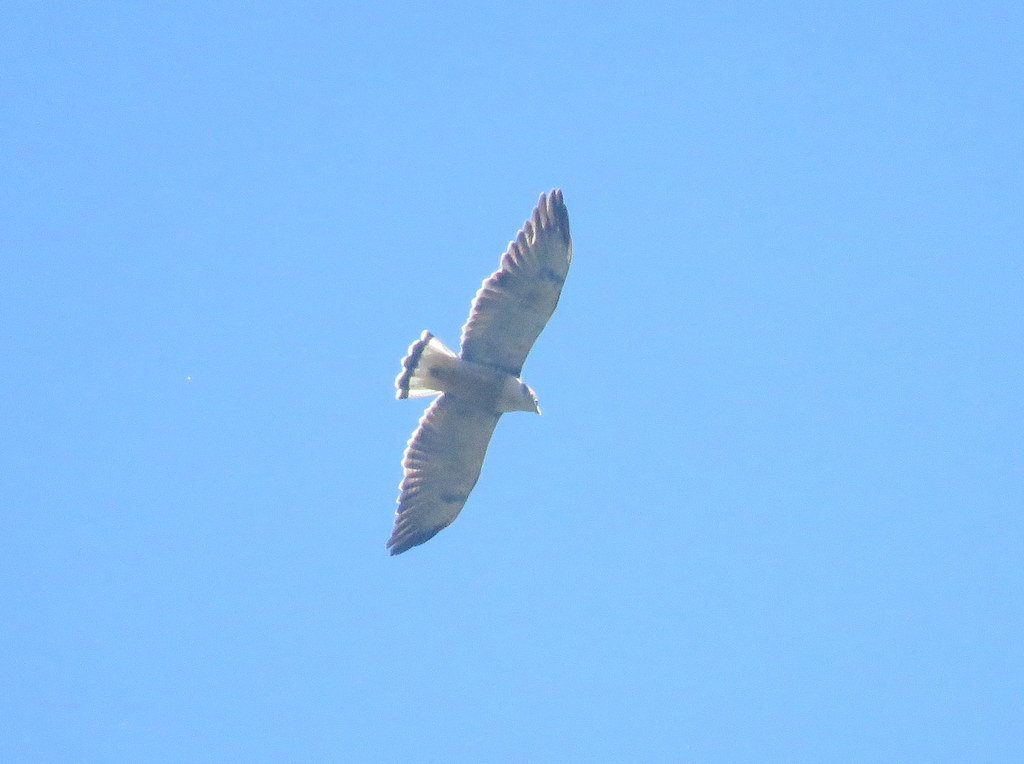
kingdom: Animalia
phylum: Chordata
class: Aves
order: Accipitriformes
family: Accipitridae
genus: Buteo
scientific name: Buteo polyosoma
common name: Variable hawk
